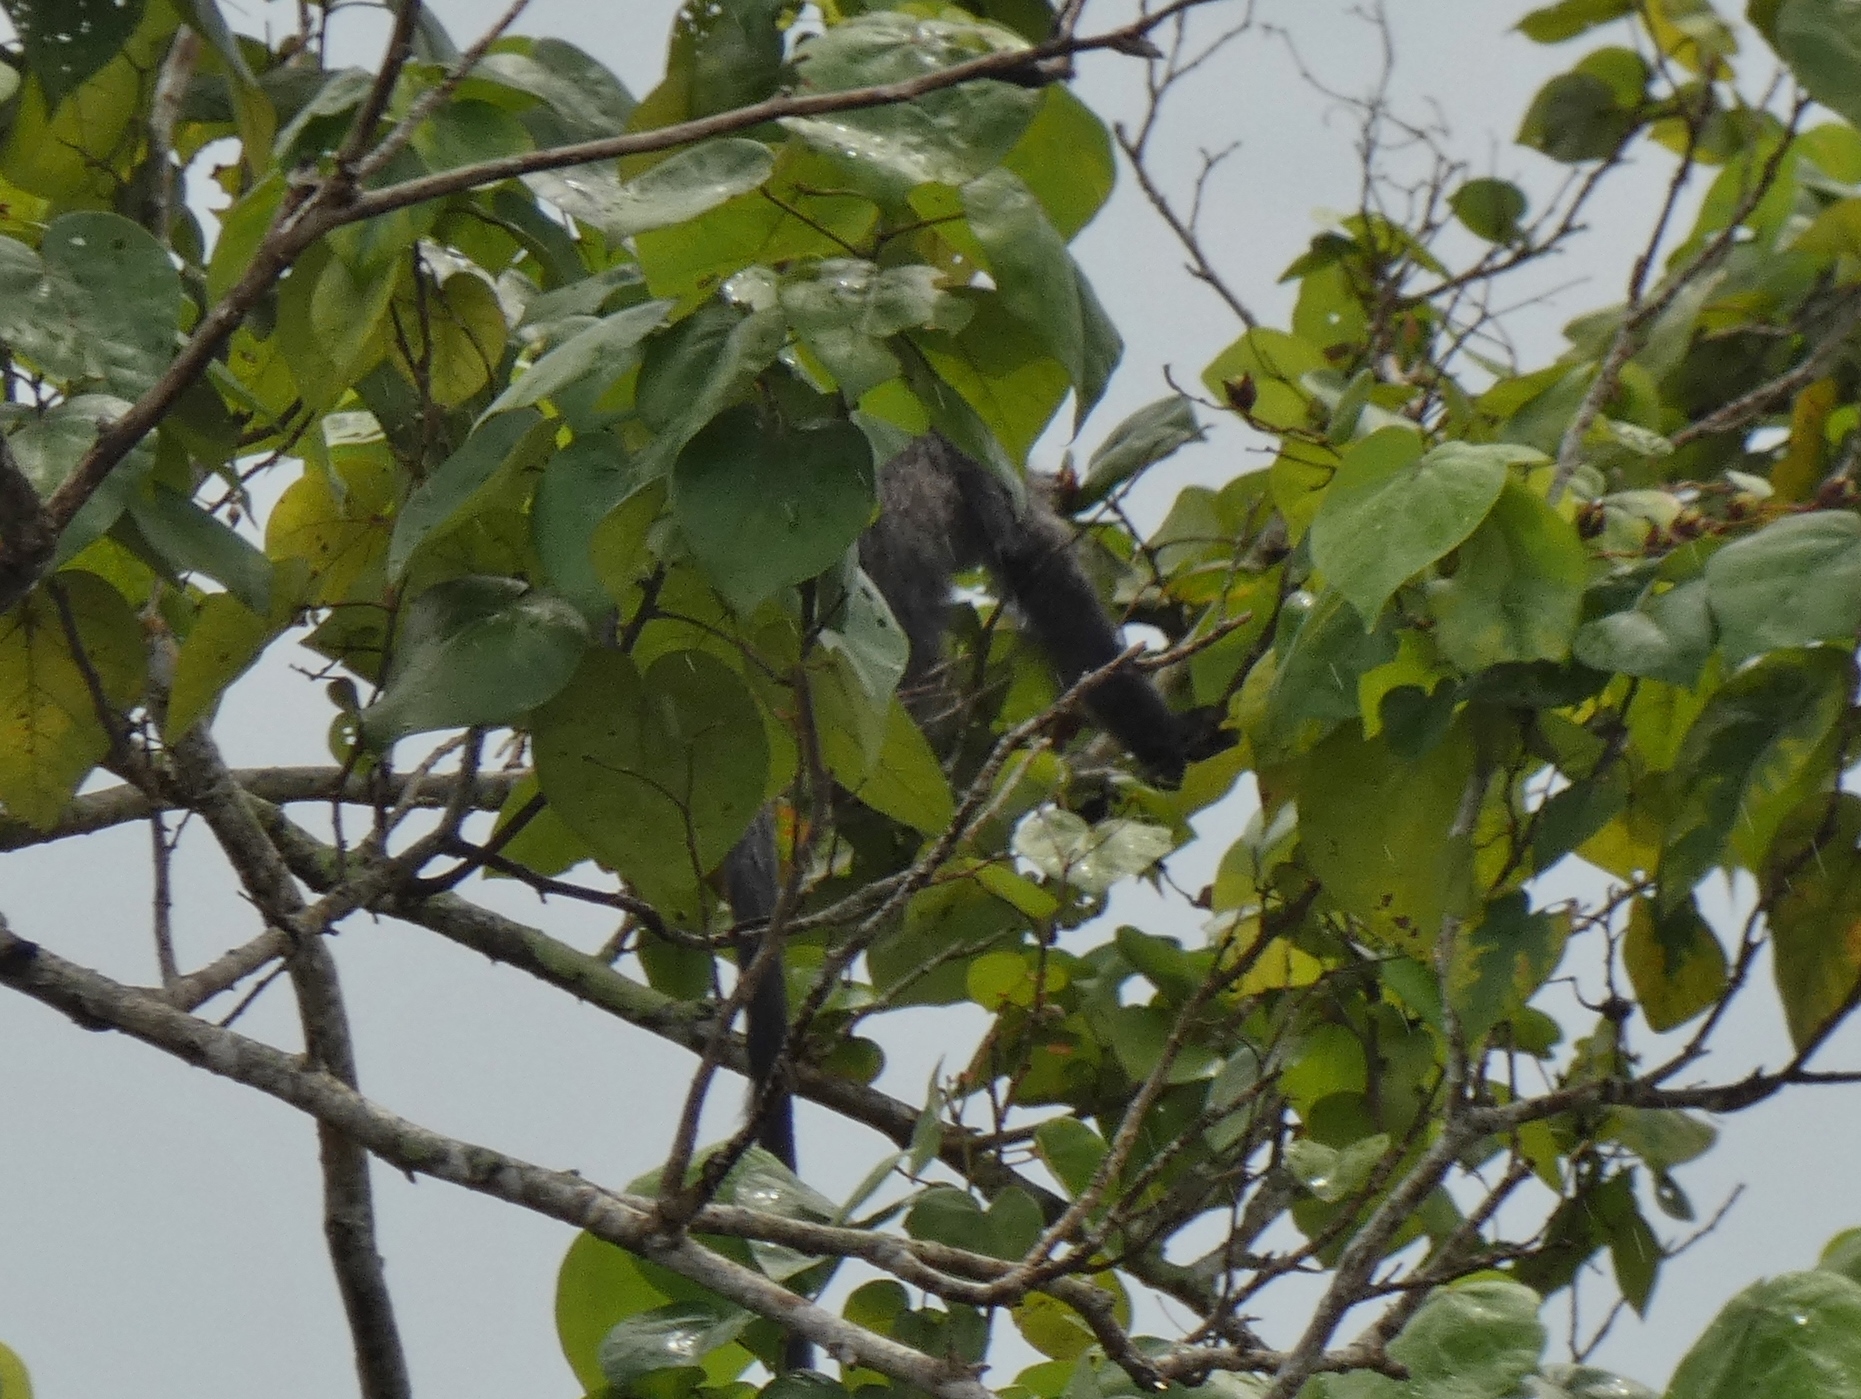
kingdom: Animalia
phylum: Chordata
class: Mammalia
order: Primates
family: Cercopithecidae
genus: Trachypithecus
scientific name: Trachypithecus cristatus
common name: Silvery lutung
